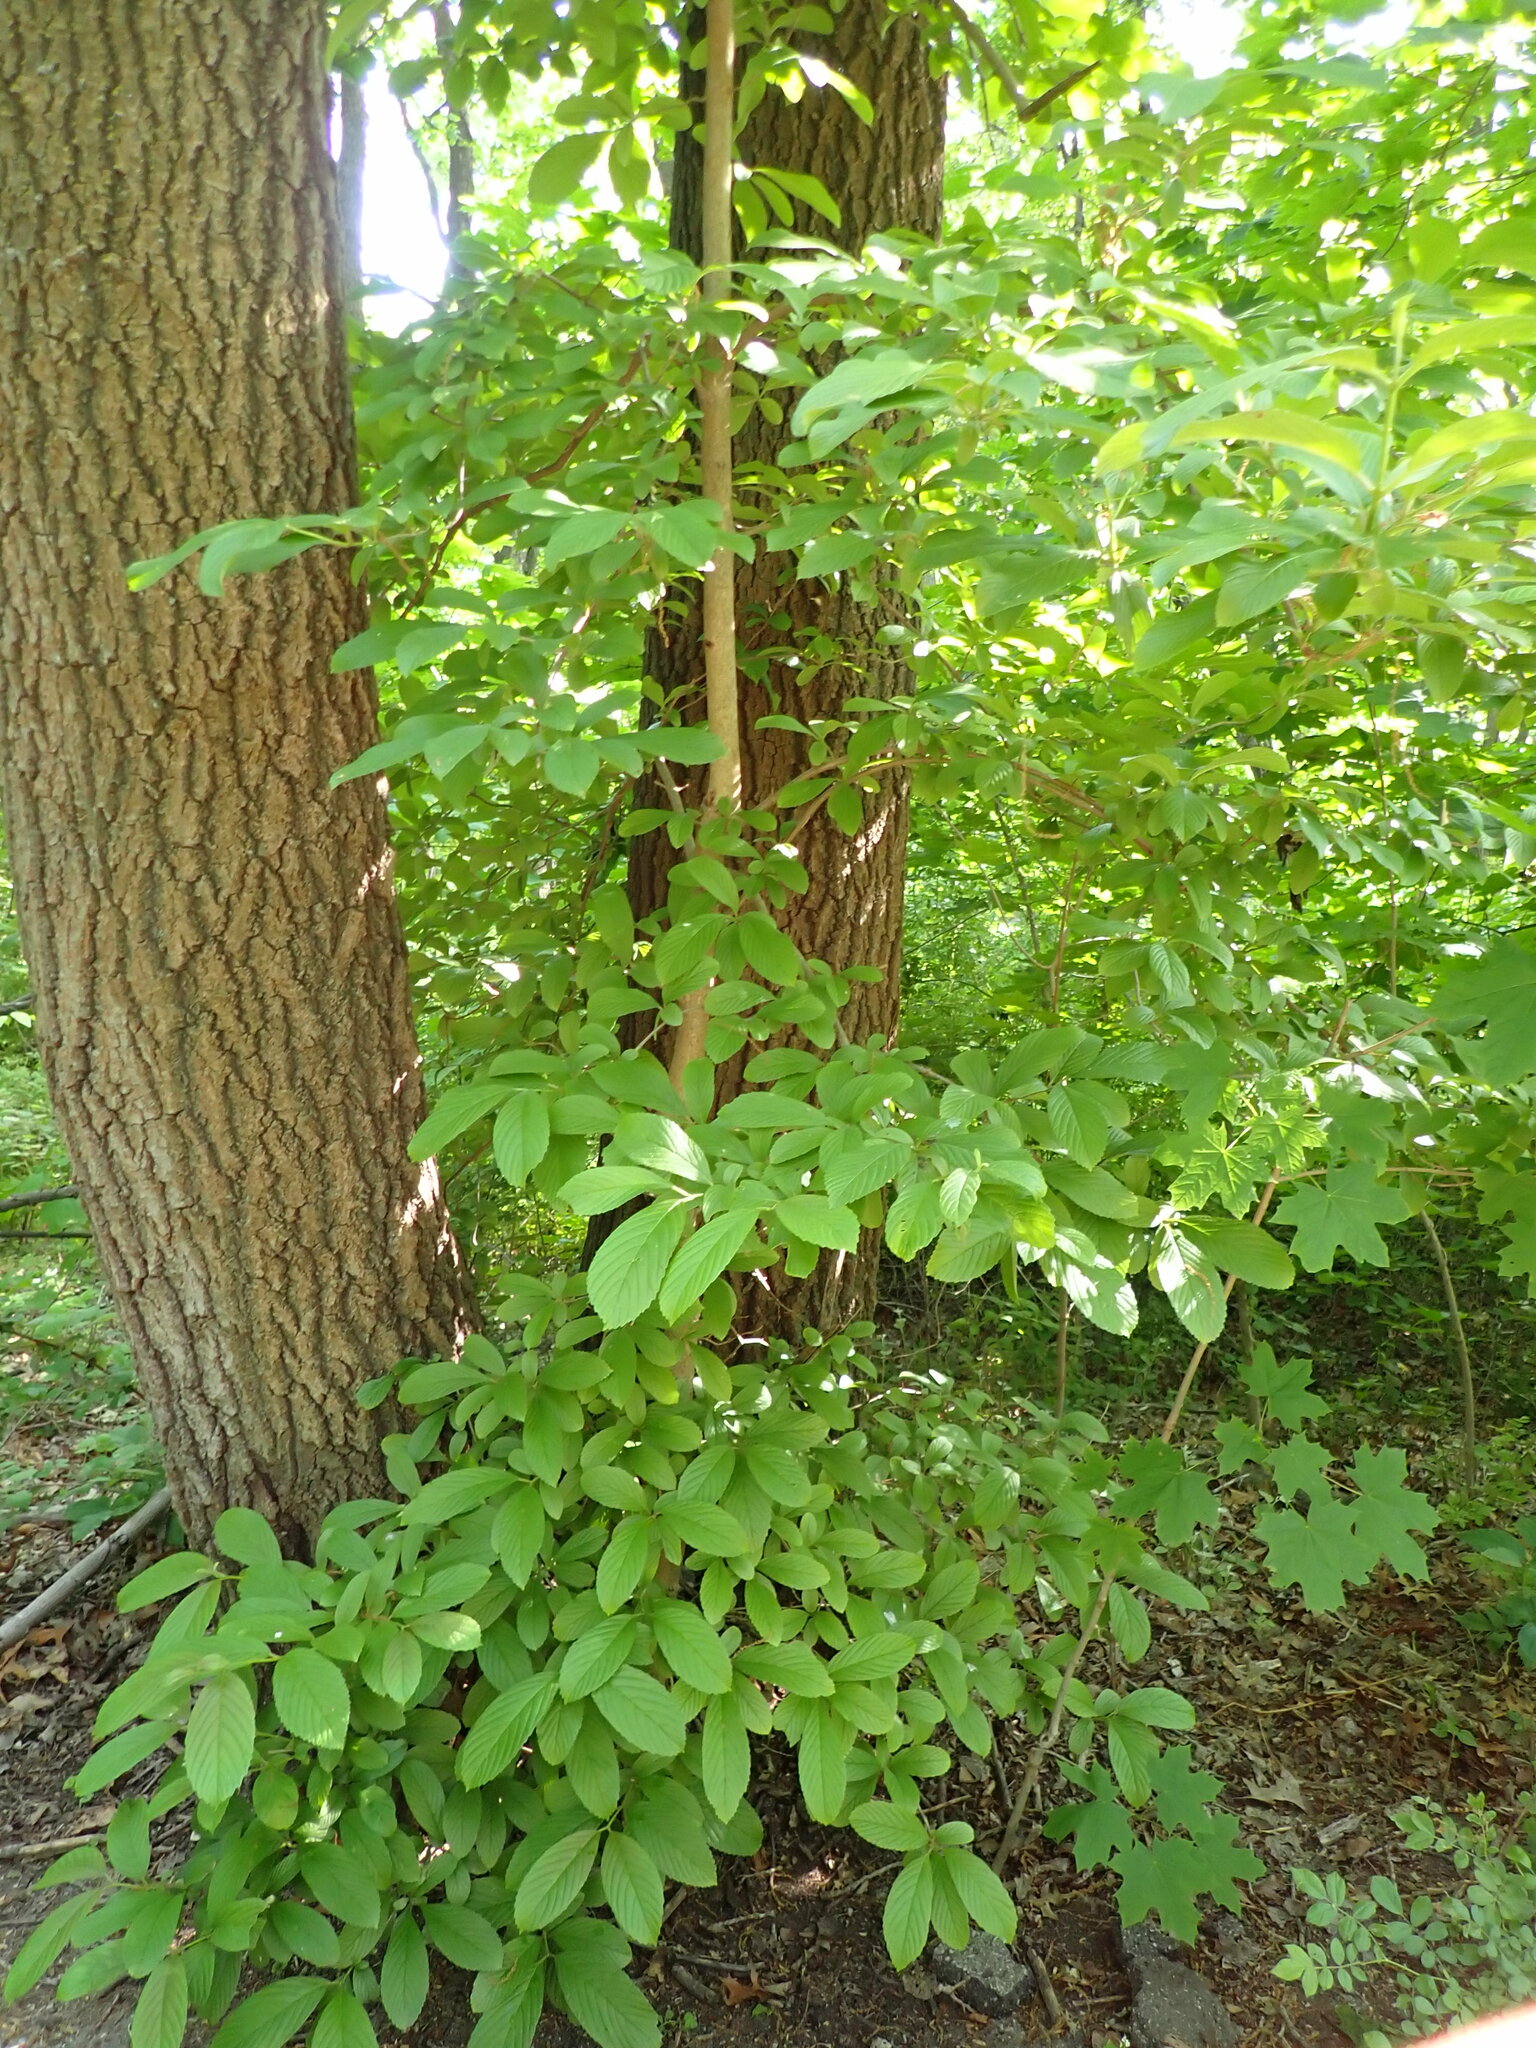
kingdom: Plantae
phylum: Tracheophyta
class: Magnoliopsida
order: Dipsacales
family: Viburnaceae
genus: Viburnum
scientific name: Viburnum sieboldii
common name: Siebold's arrowwood
